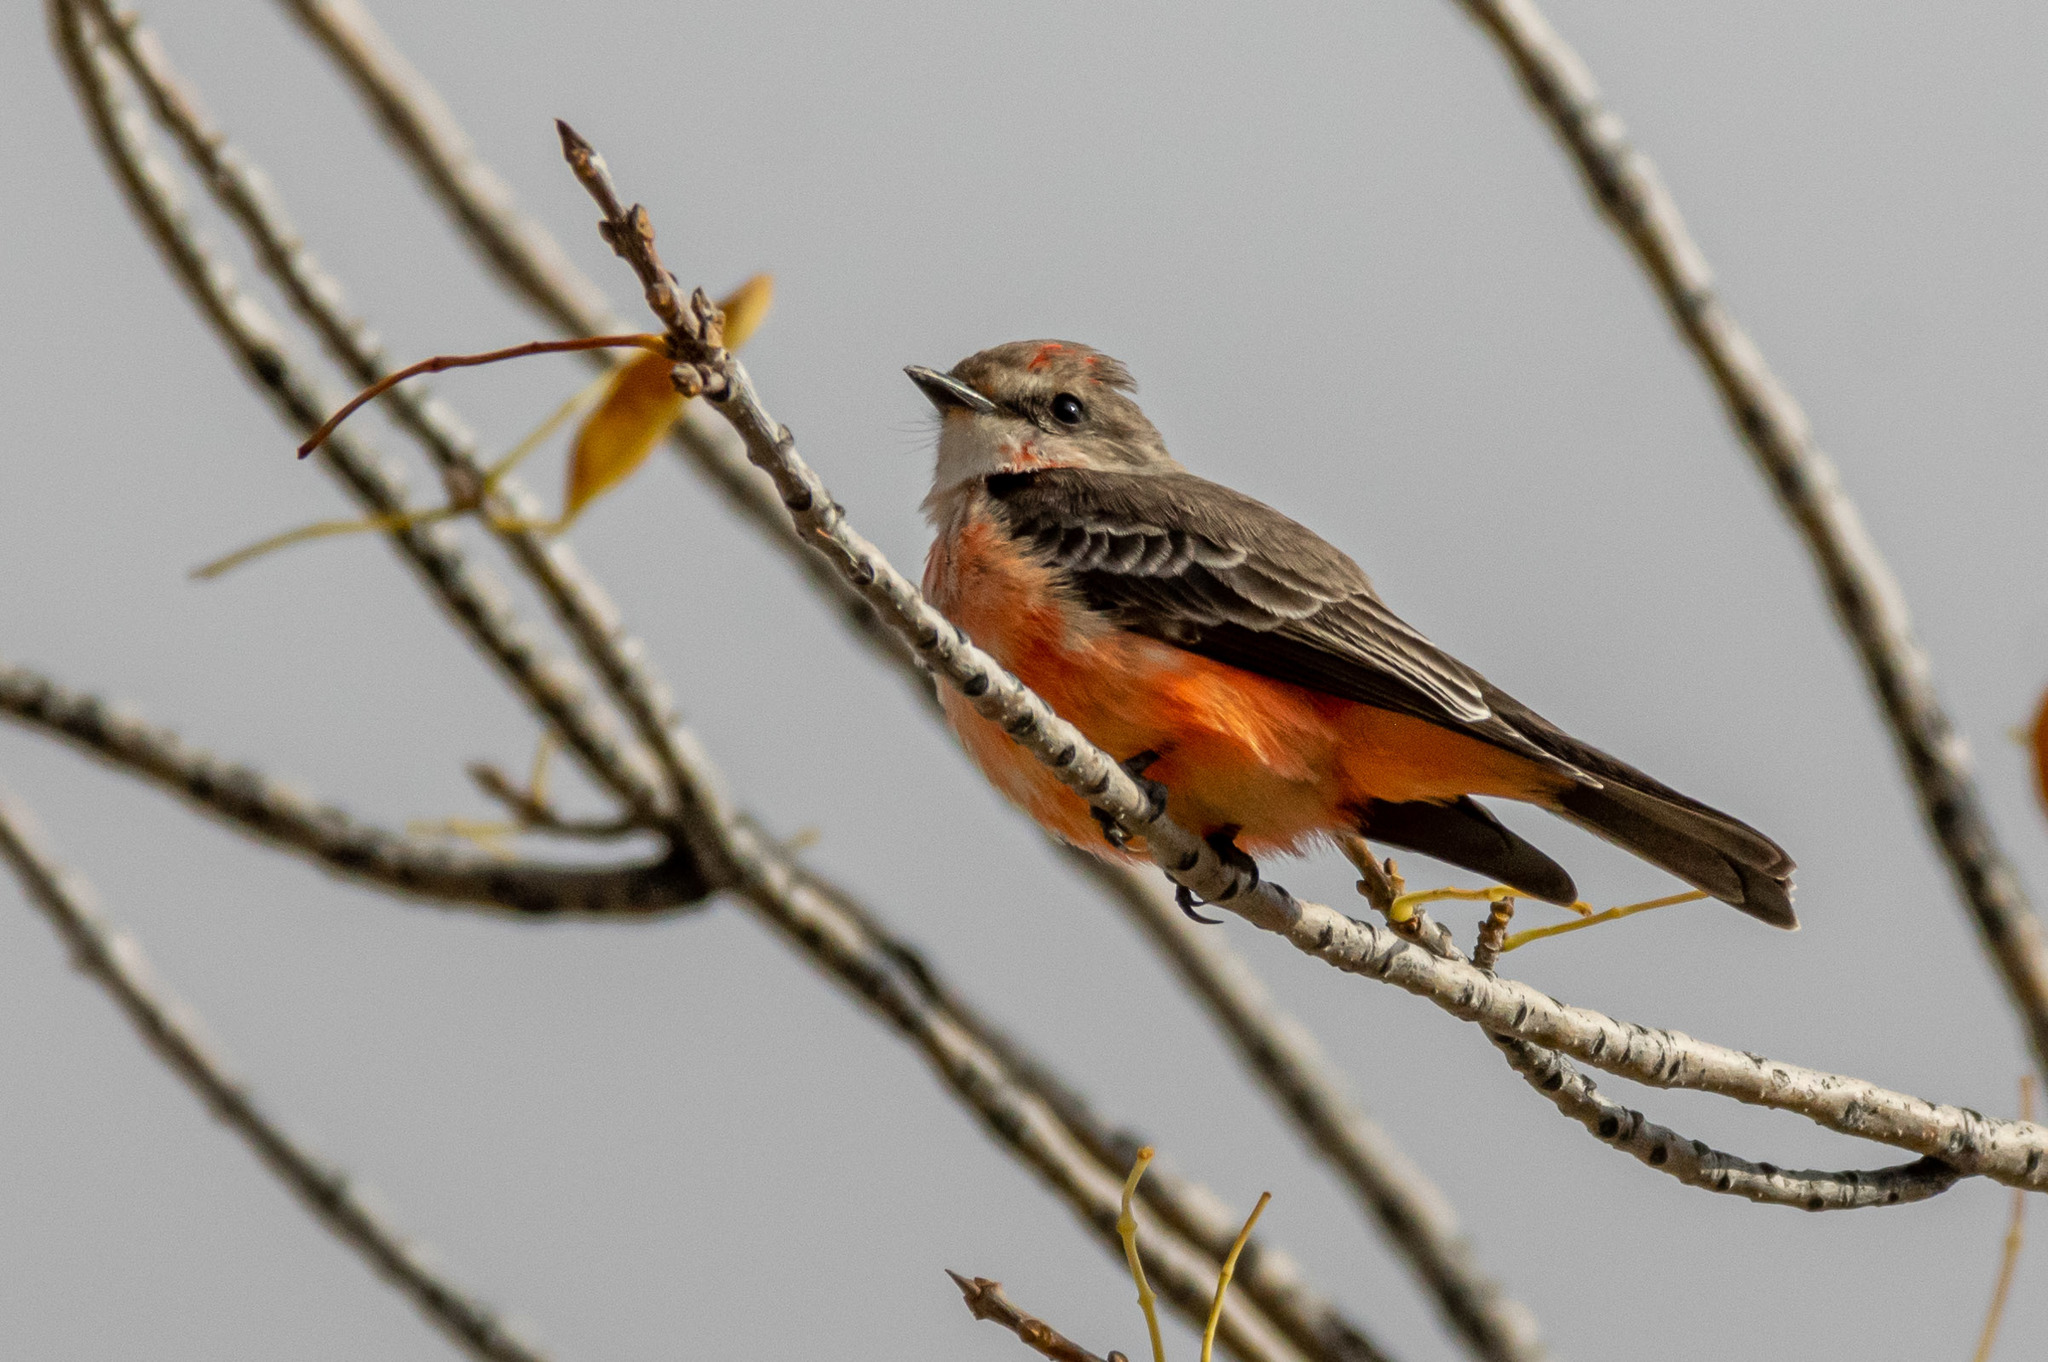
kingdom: Animalia
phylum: Chordata
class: Aves
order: Passeriformes
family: Tyrannidae
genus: Pyrocephalus
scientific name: Pyrocephalus rubinus
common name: Vermilion flycatcher
